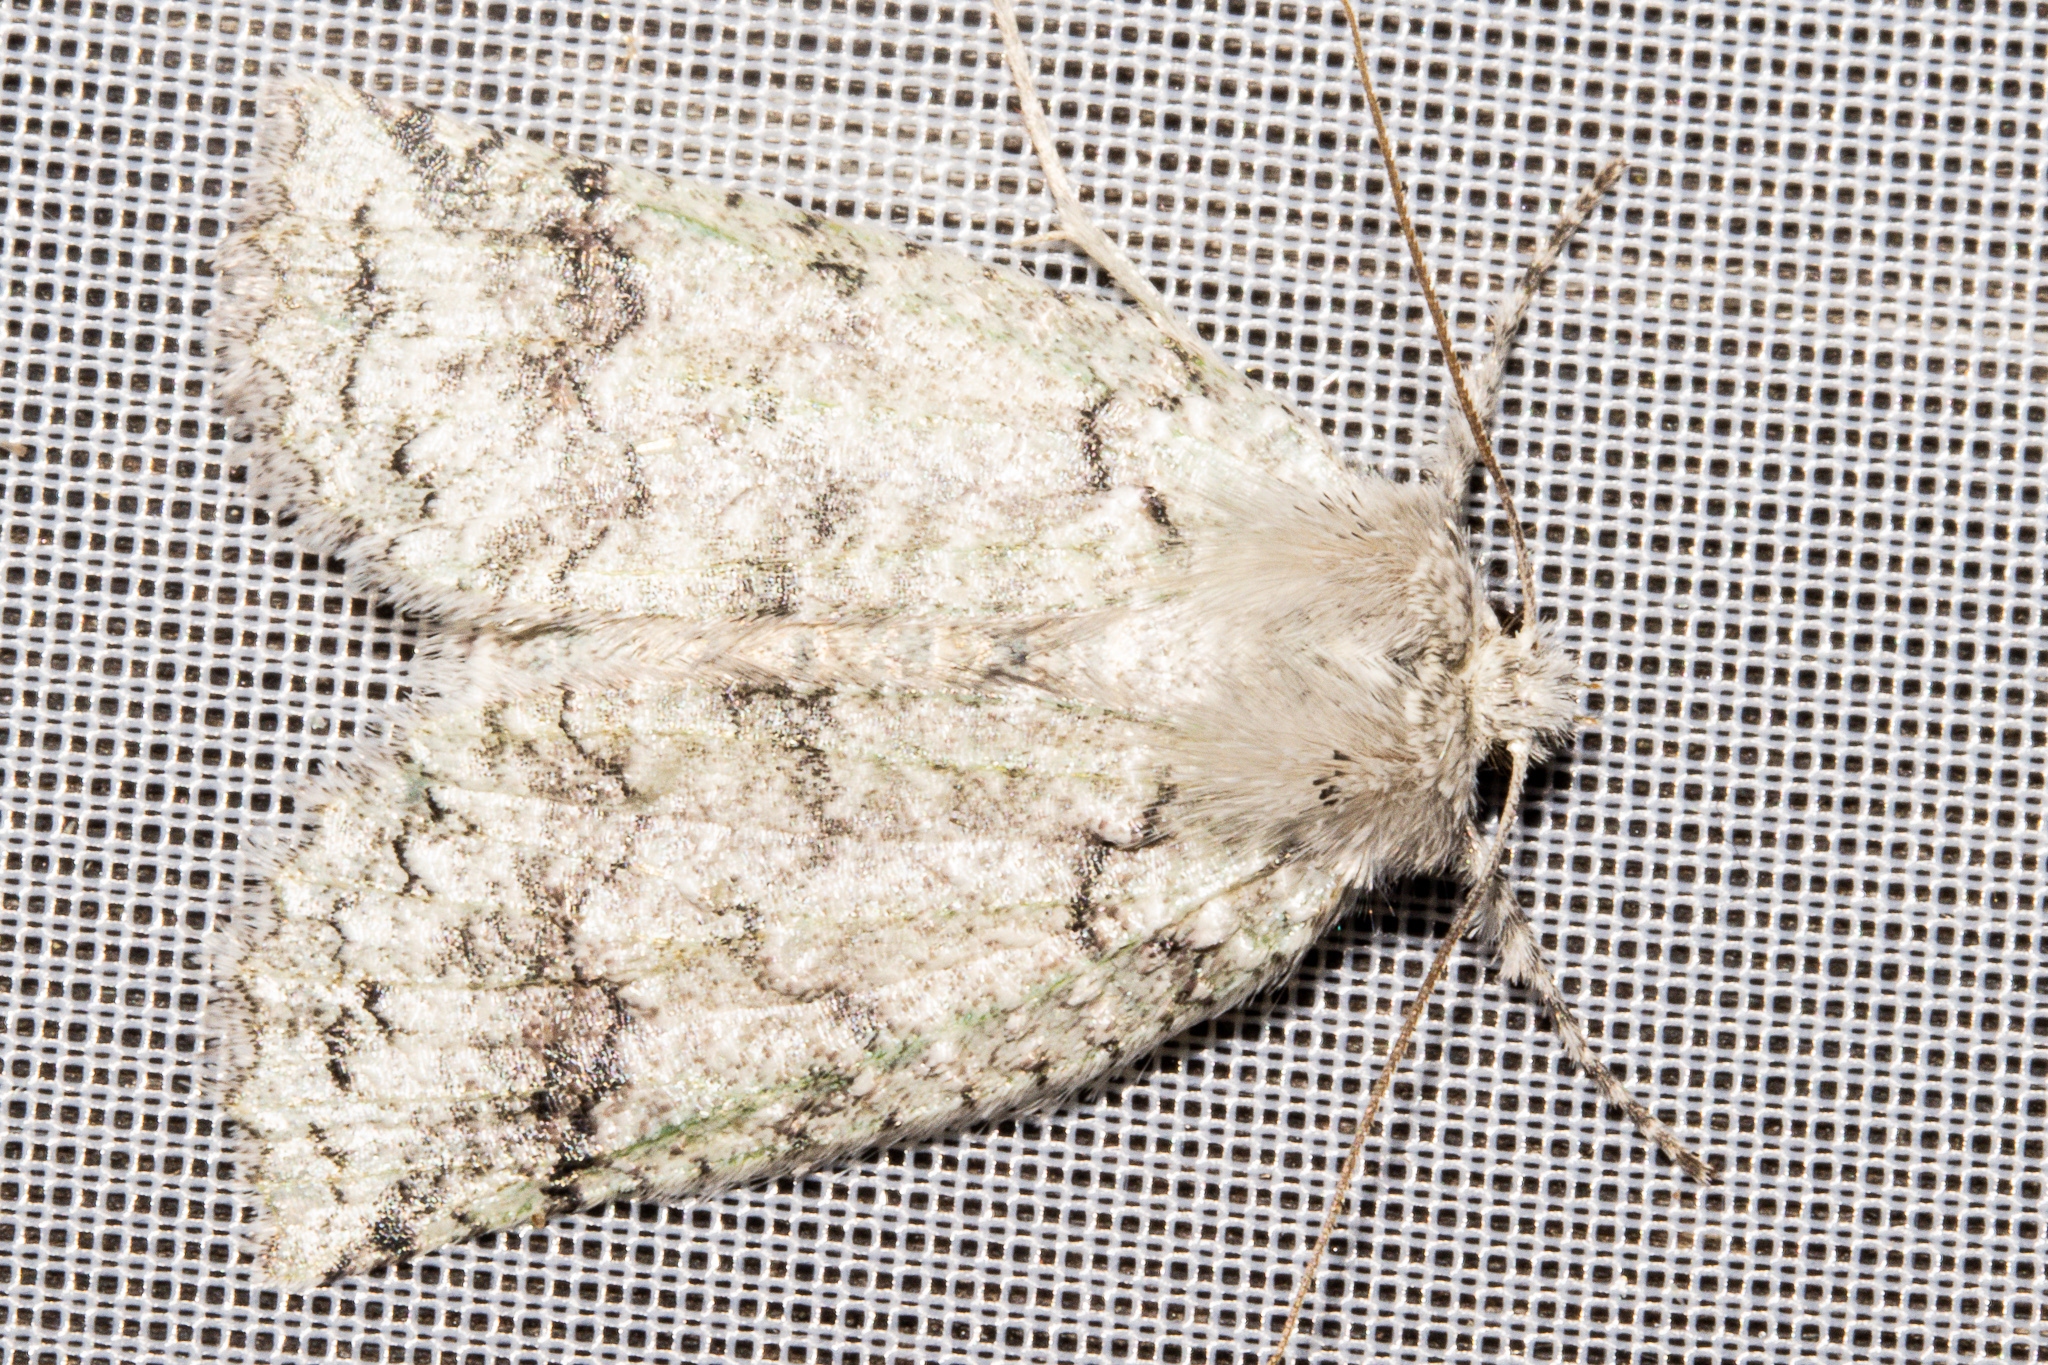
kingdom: Animalia
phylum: Arthropoda
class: Insecta
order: Lepidoptera
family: Geometridae
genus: Declana
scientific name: Declana floccosa
